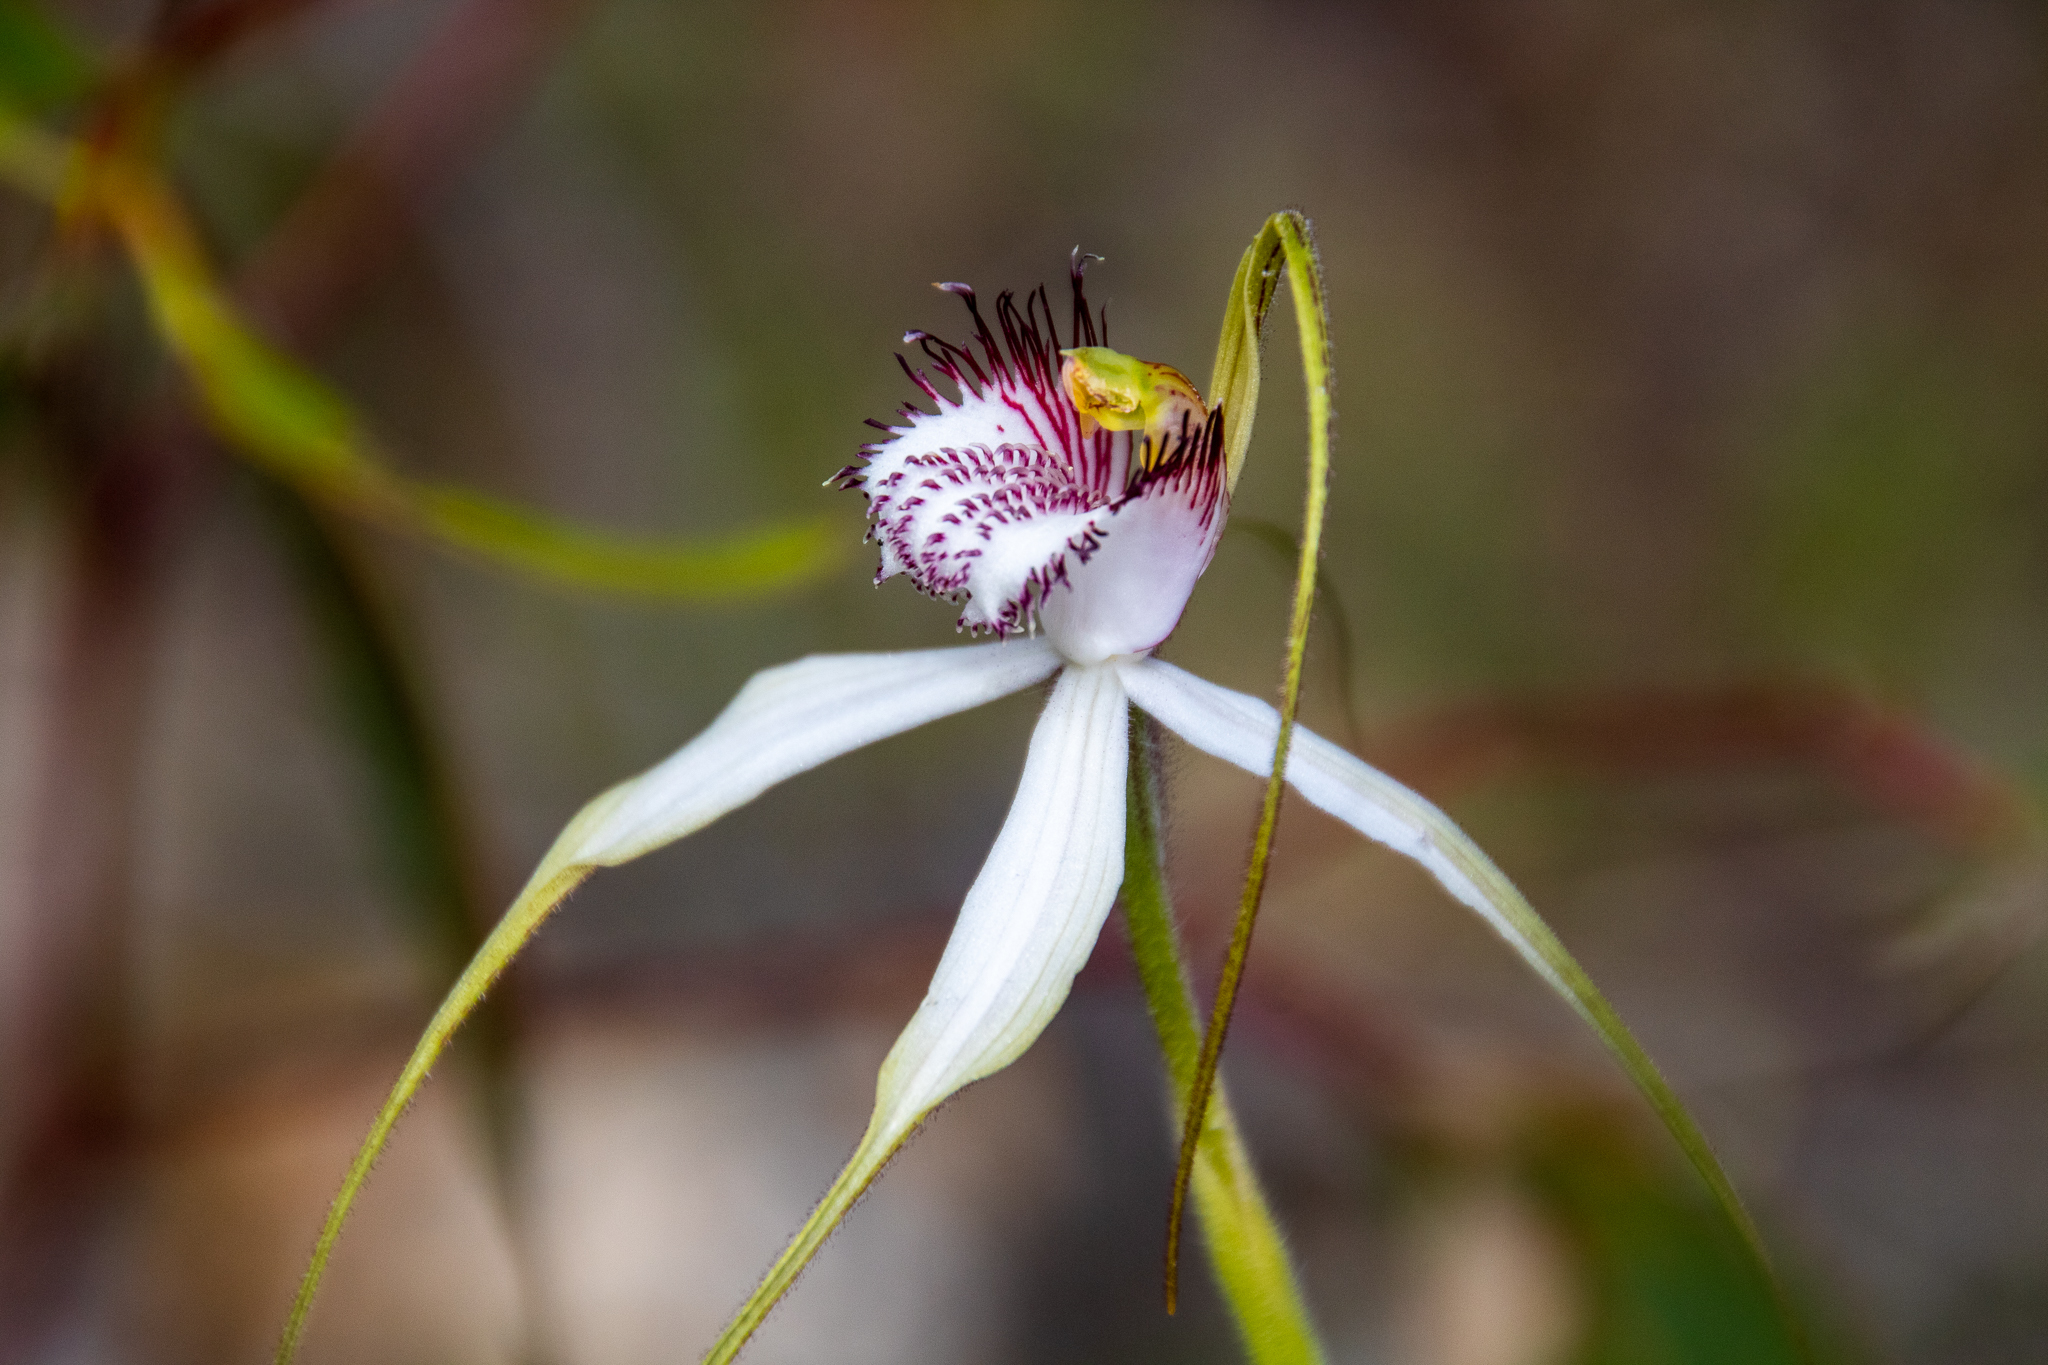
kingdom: Plantae
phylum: Tracheophyta
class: Liliopsida
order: Asparagales
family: Orchidaceae
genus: Caladenia
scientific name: Caladenia splendens
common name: Splendid spider orchid
